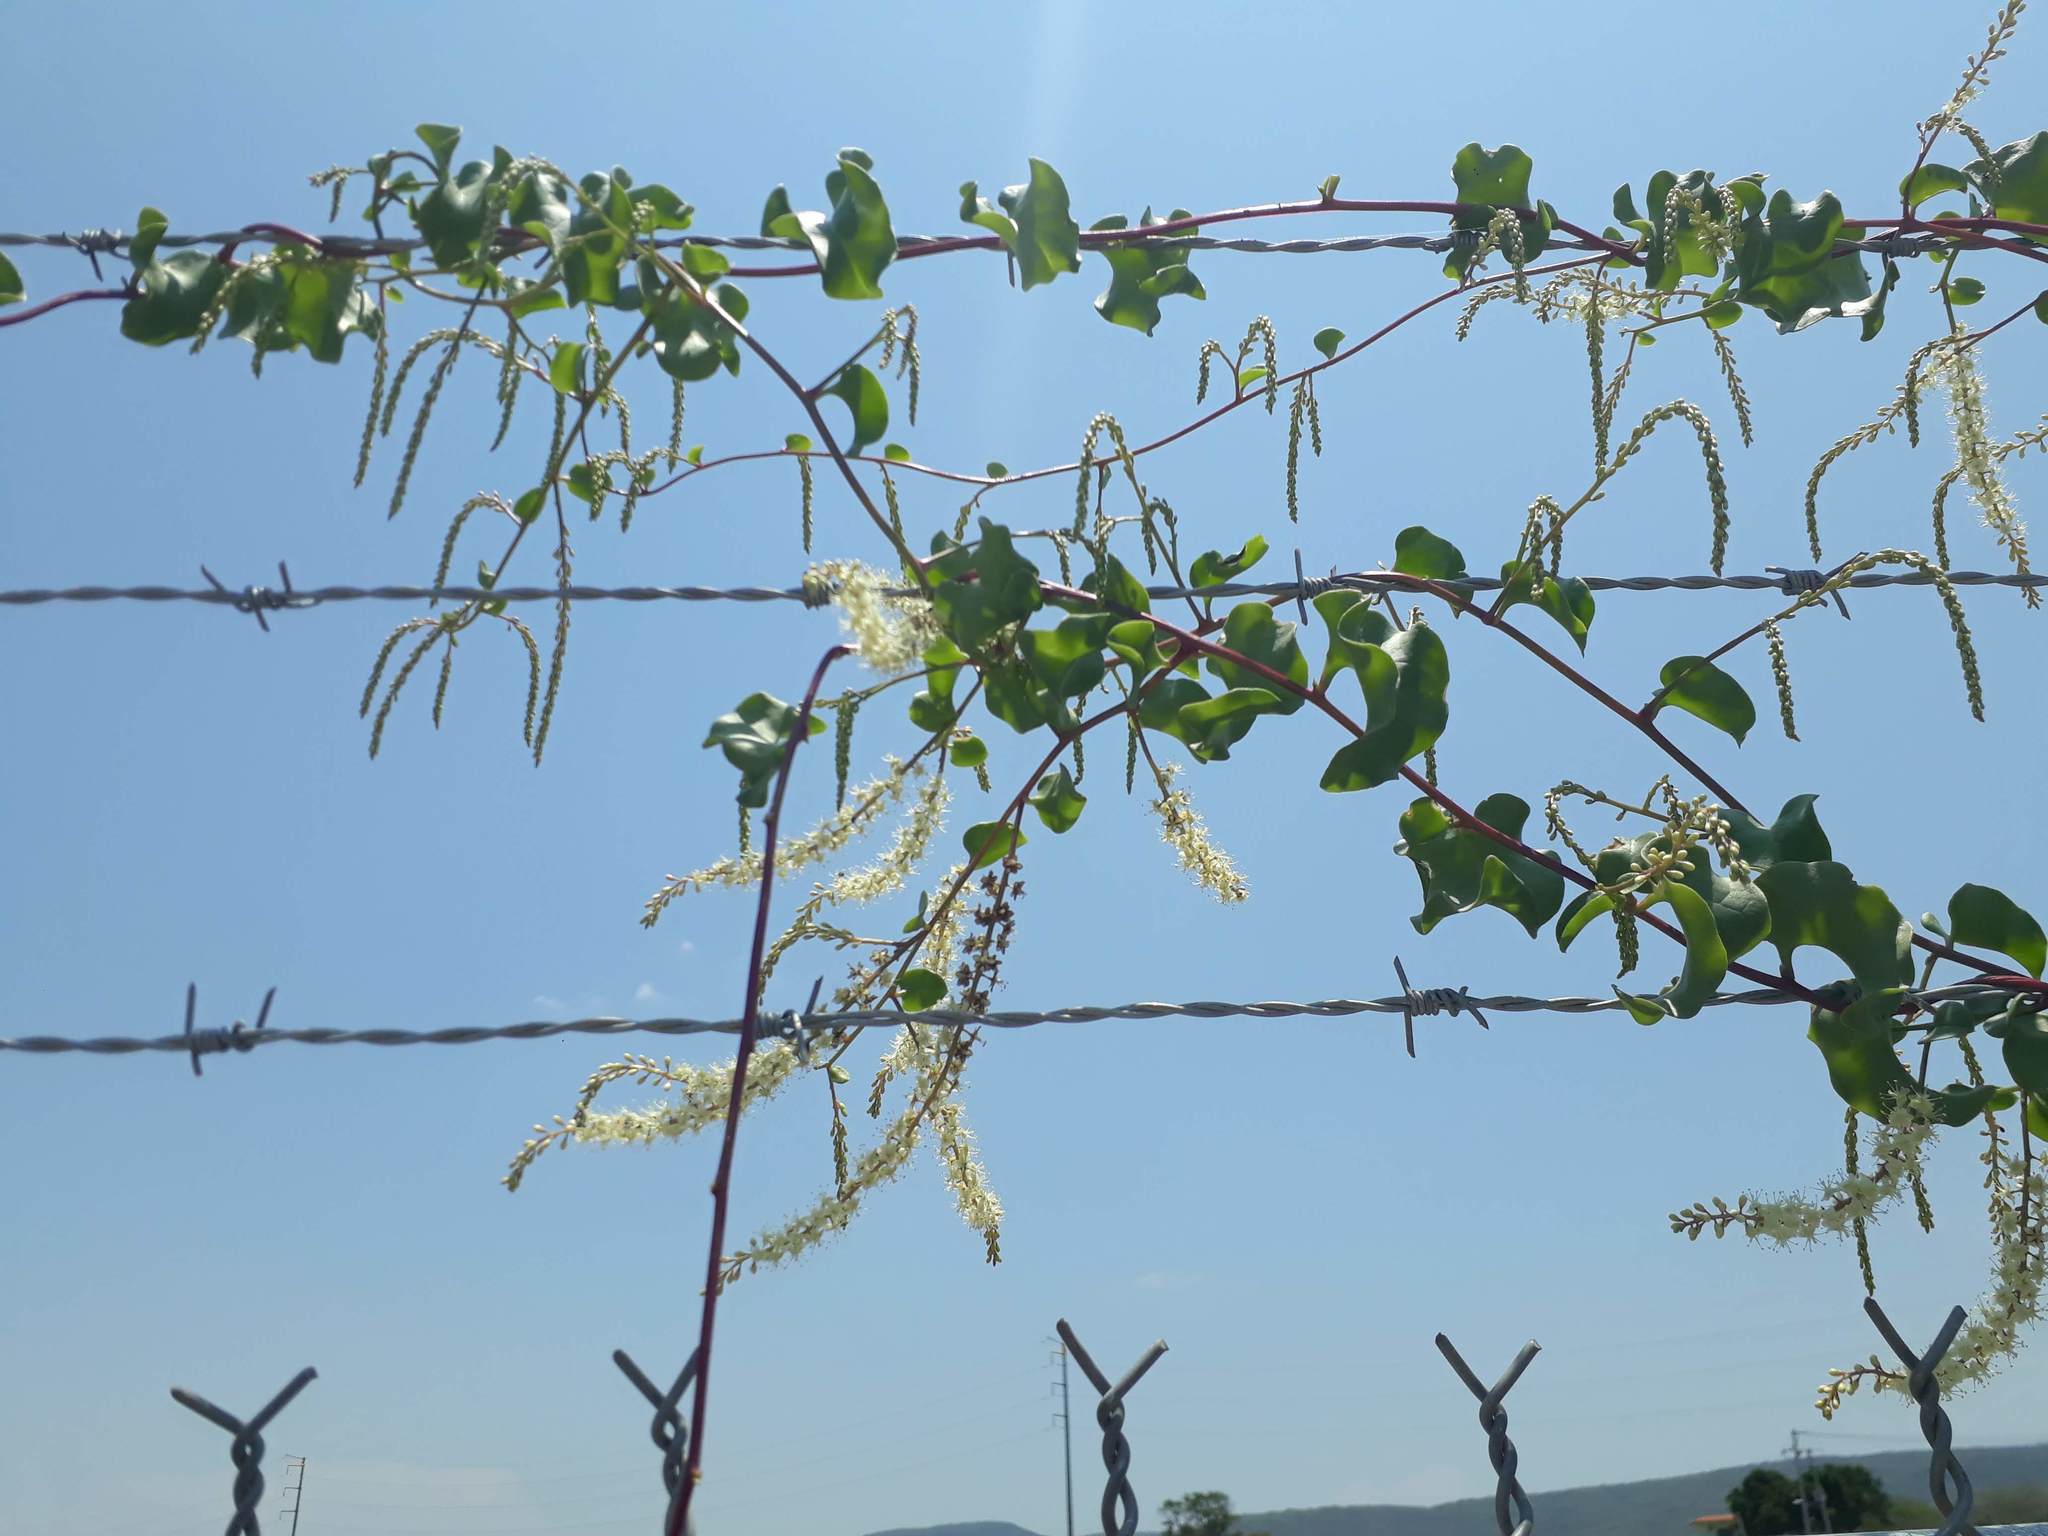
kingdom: Plantae
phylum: Tracheophyta
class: Magnoliopsida
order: Caryophyllales
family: Basellaceae
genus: Anredera
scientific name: Anredera cordifolia
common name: Heartleaf madeiravine
